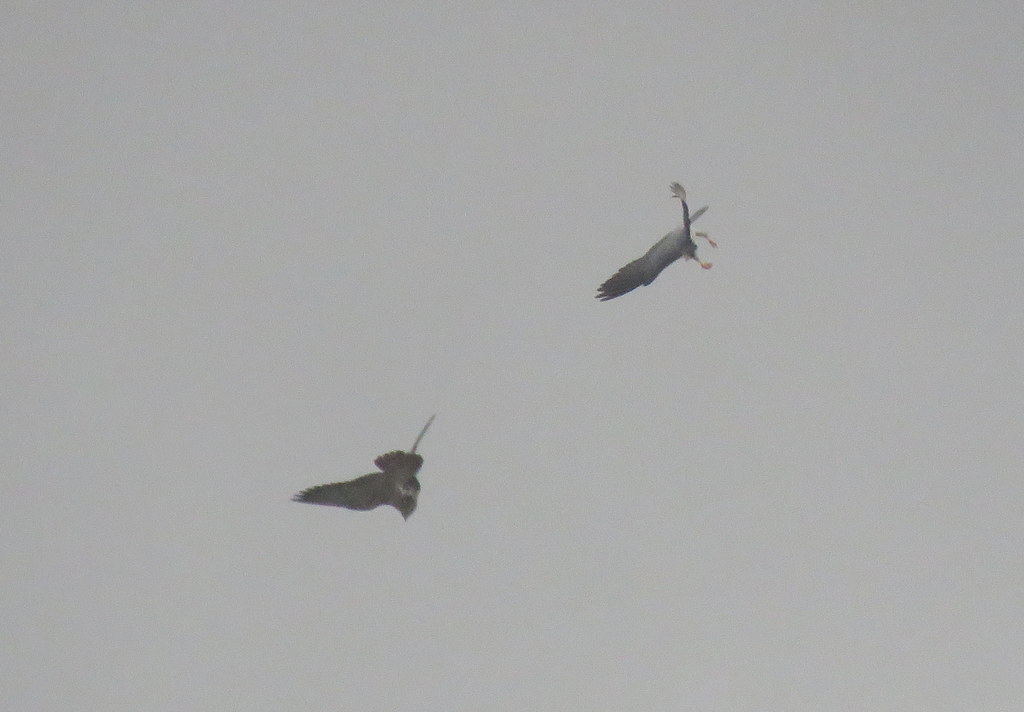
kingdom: Animalia
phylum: Chordata
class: Aves
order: Falconiformes
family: Falconidae
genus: Falco
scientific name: Falco peregrinus
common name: Peregrine falcon
